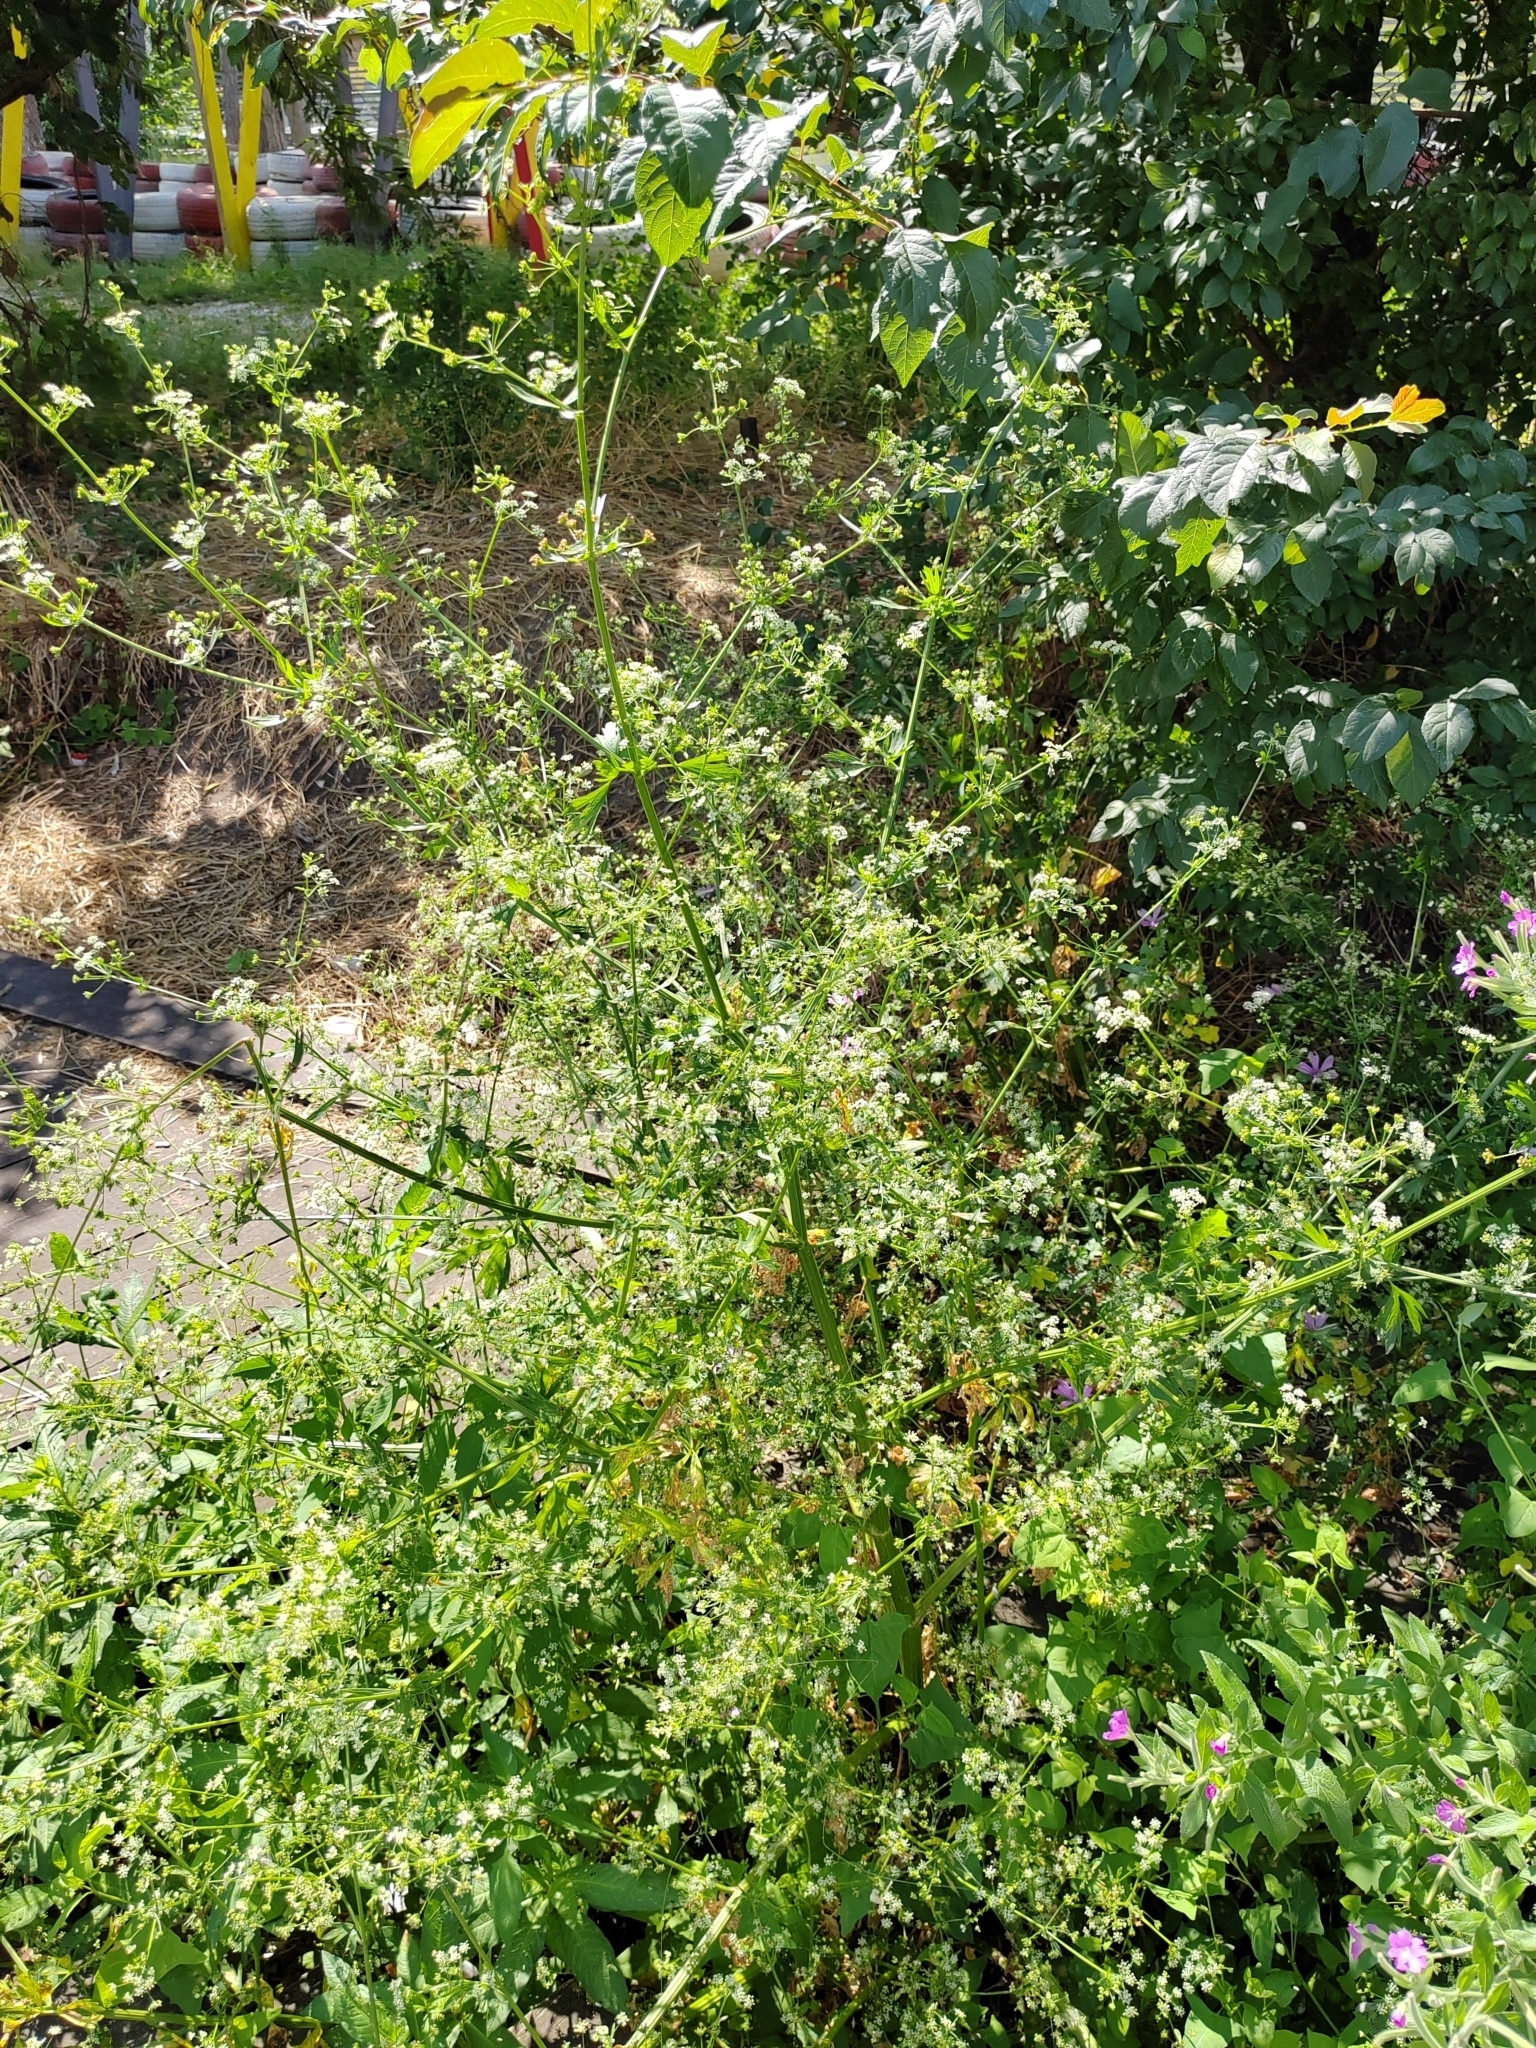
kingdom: Plantae
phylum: Tracheophyta
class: Magnoliopsida
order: Apiales
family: Apiaceae
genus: Conium
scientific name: Conium maculatum
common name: Hemlock
